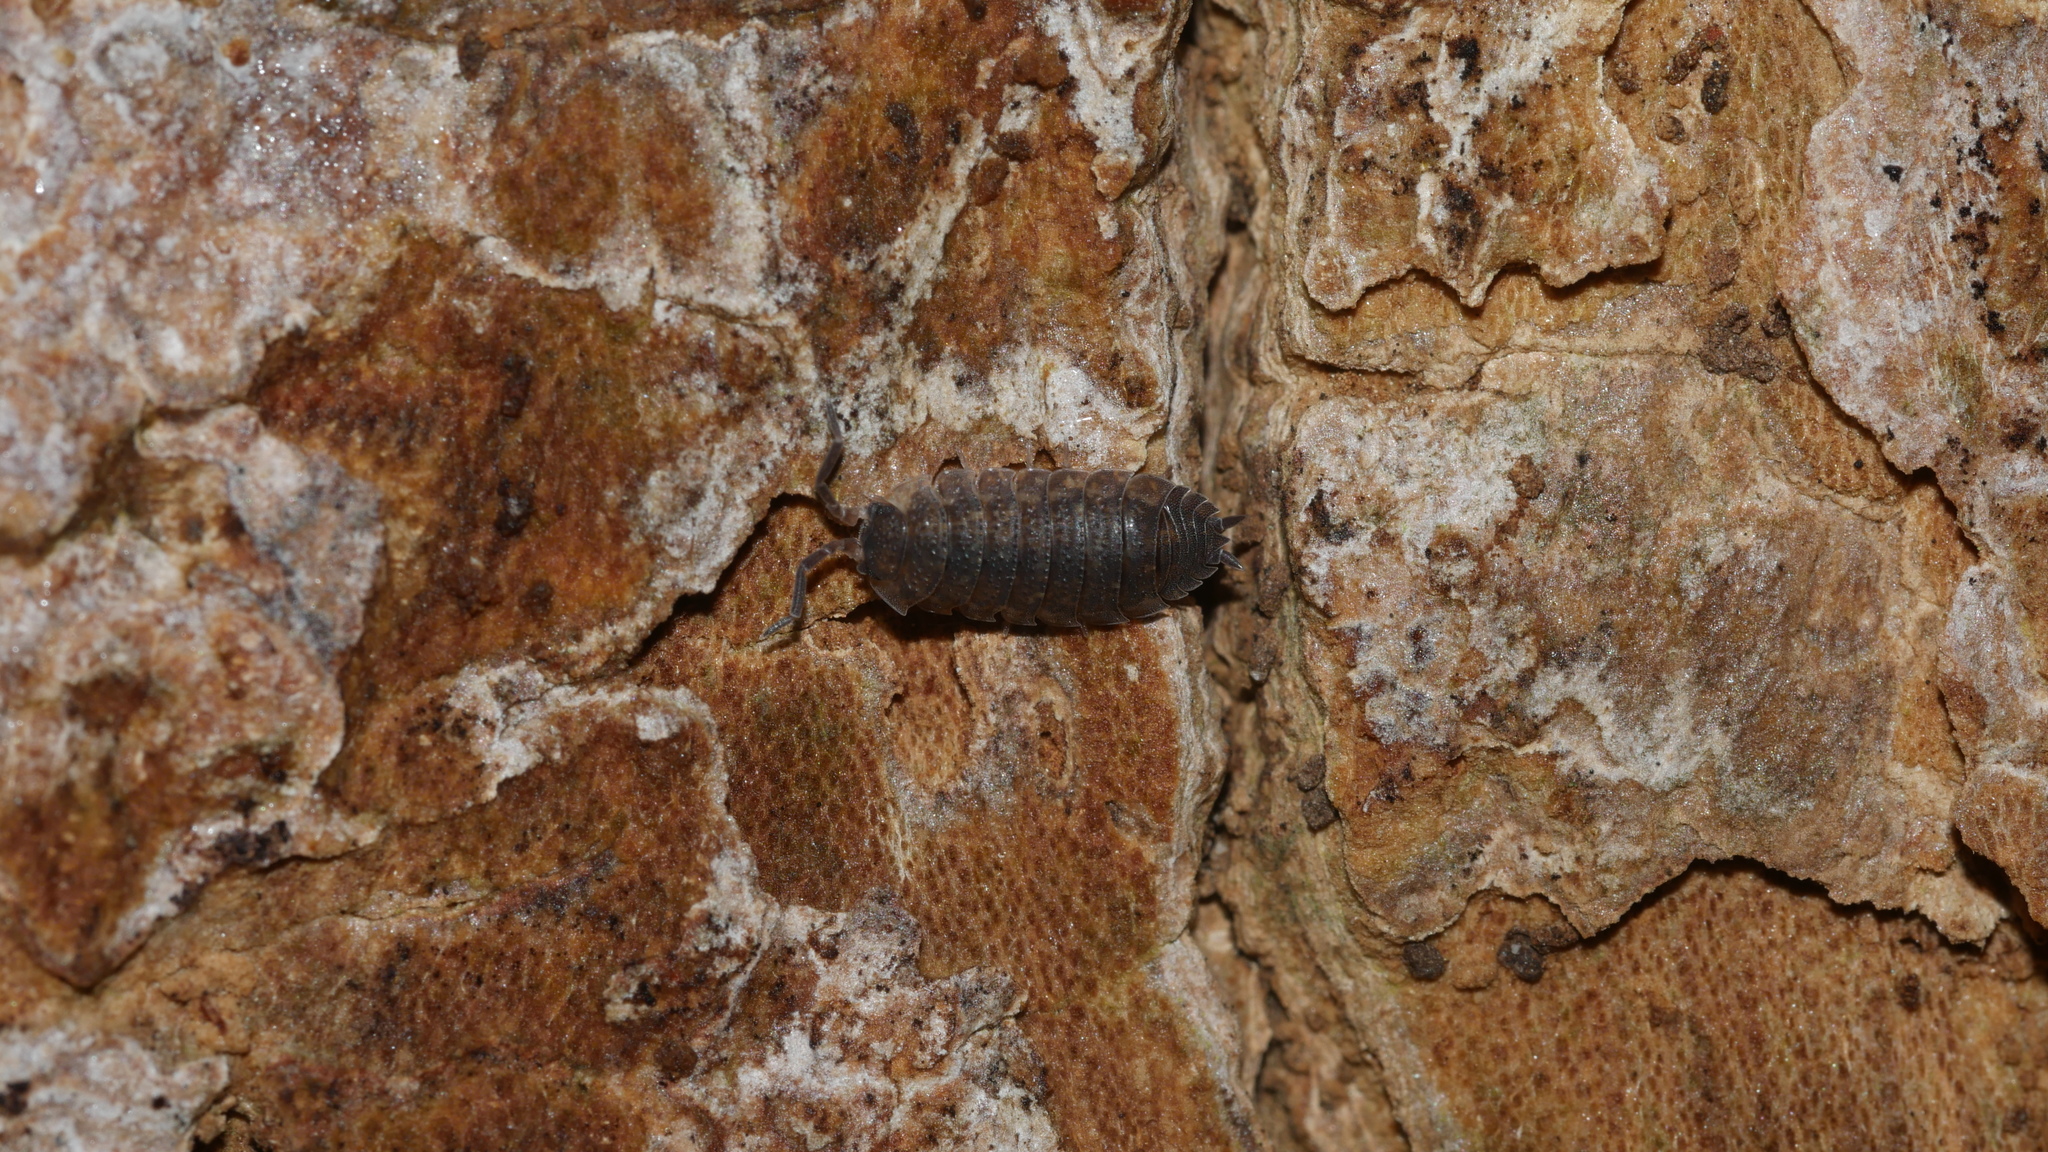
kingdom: Animalia
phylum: Arthropoda
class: Malacostraca
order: Isopoda
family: Porcellionidae
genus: Porcellio
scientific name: Porcellio scaber
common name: Common rough woodlouse
